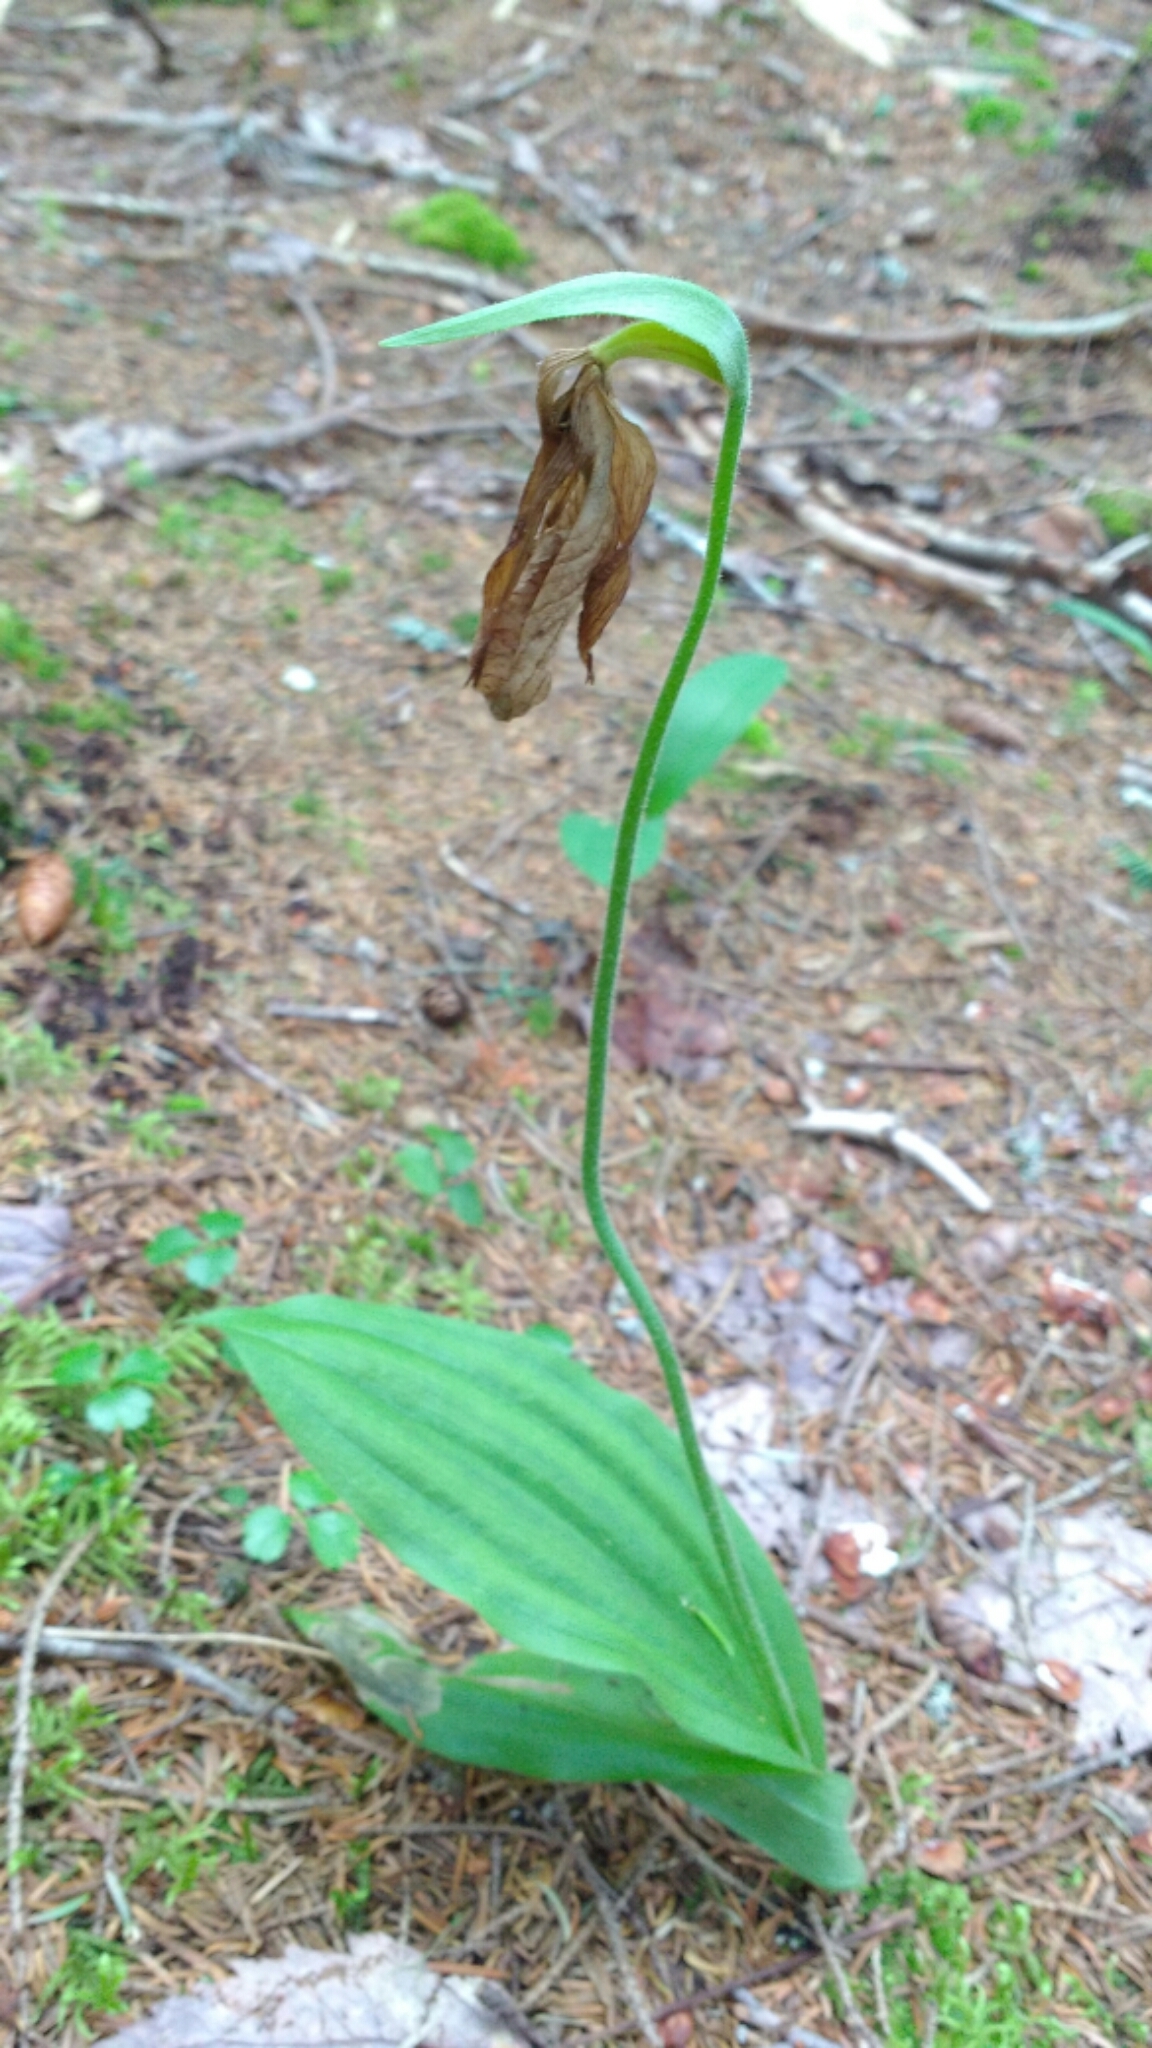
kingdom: Plantae
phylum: Tracheophyta
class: Liliopsida
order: Asparagales
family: Orchidaceae
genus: Cypripedium
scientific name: Cypripedium acaule
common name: Pink lady's-slipper
